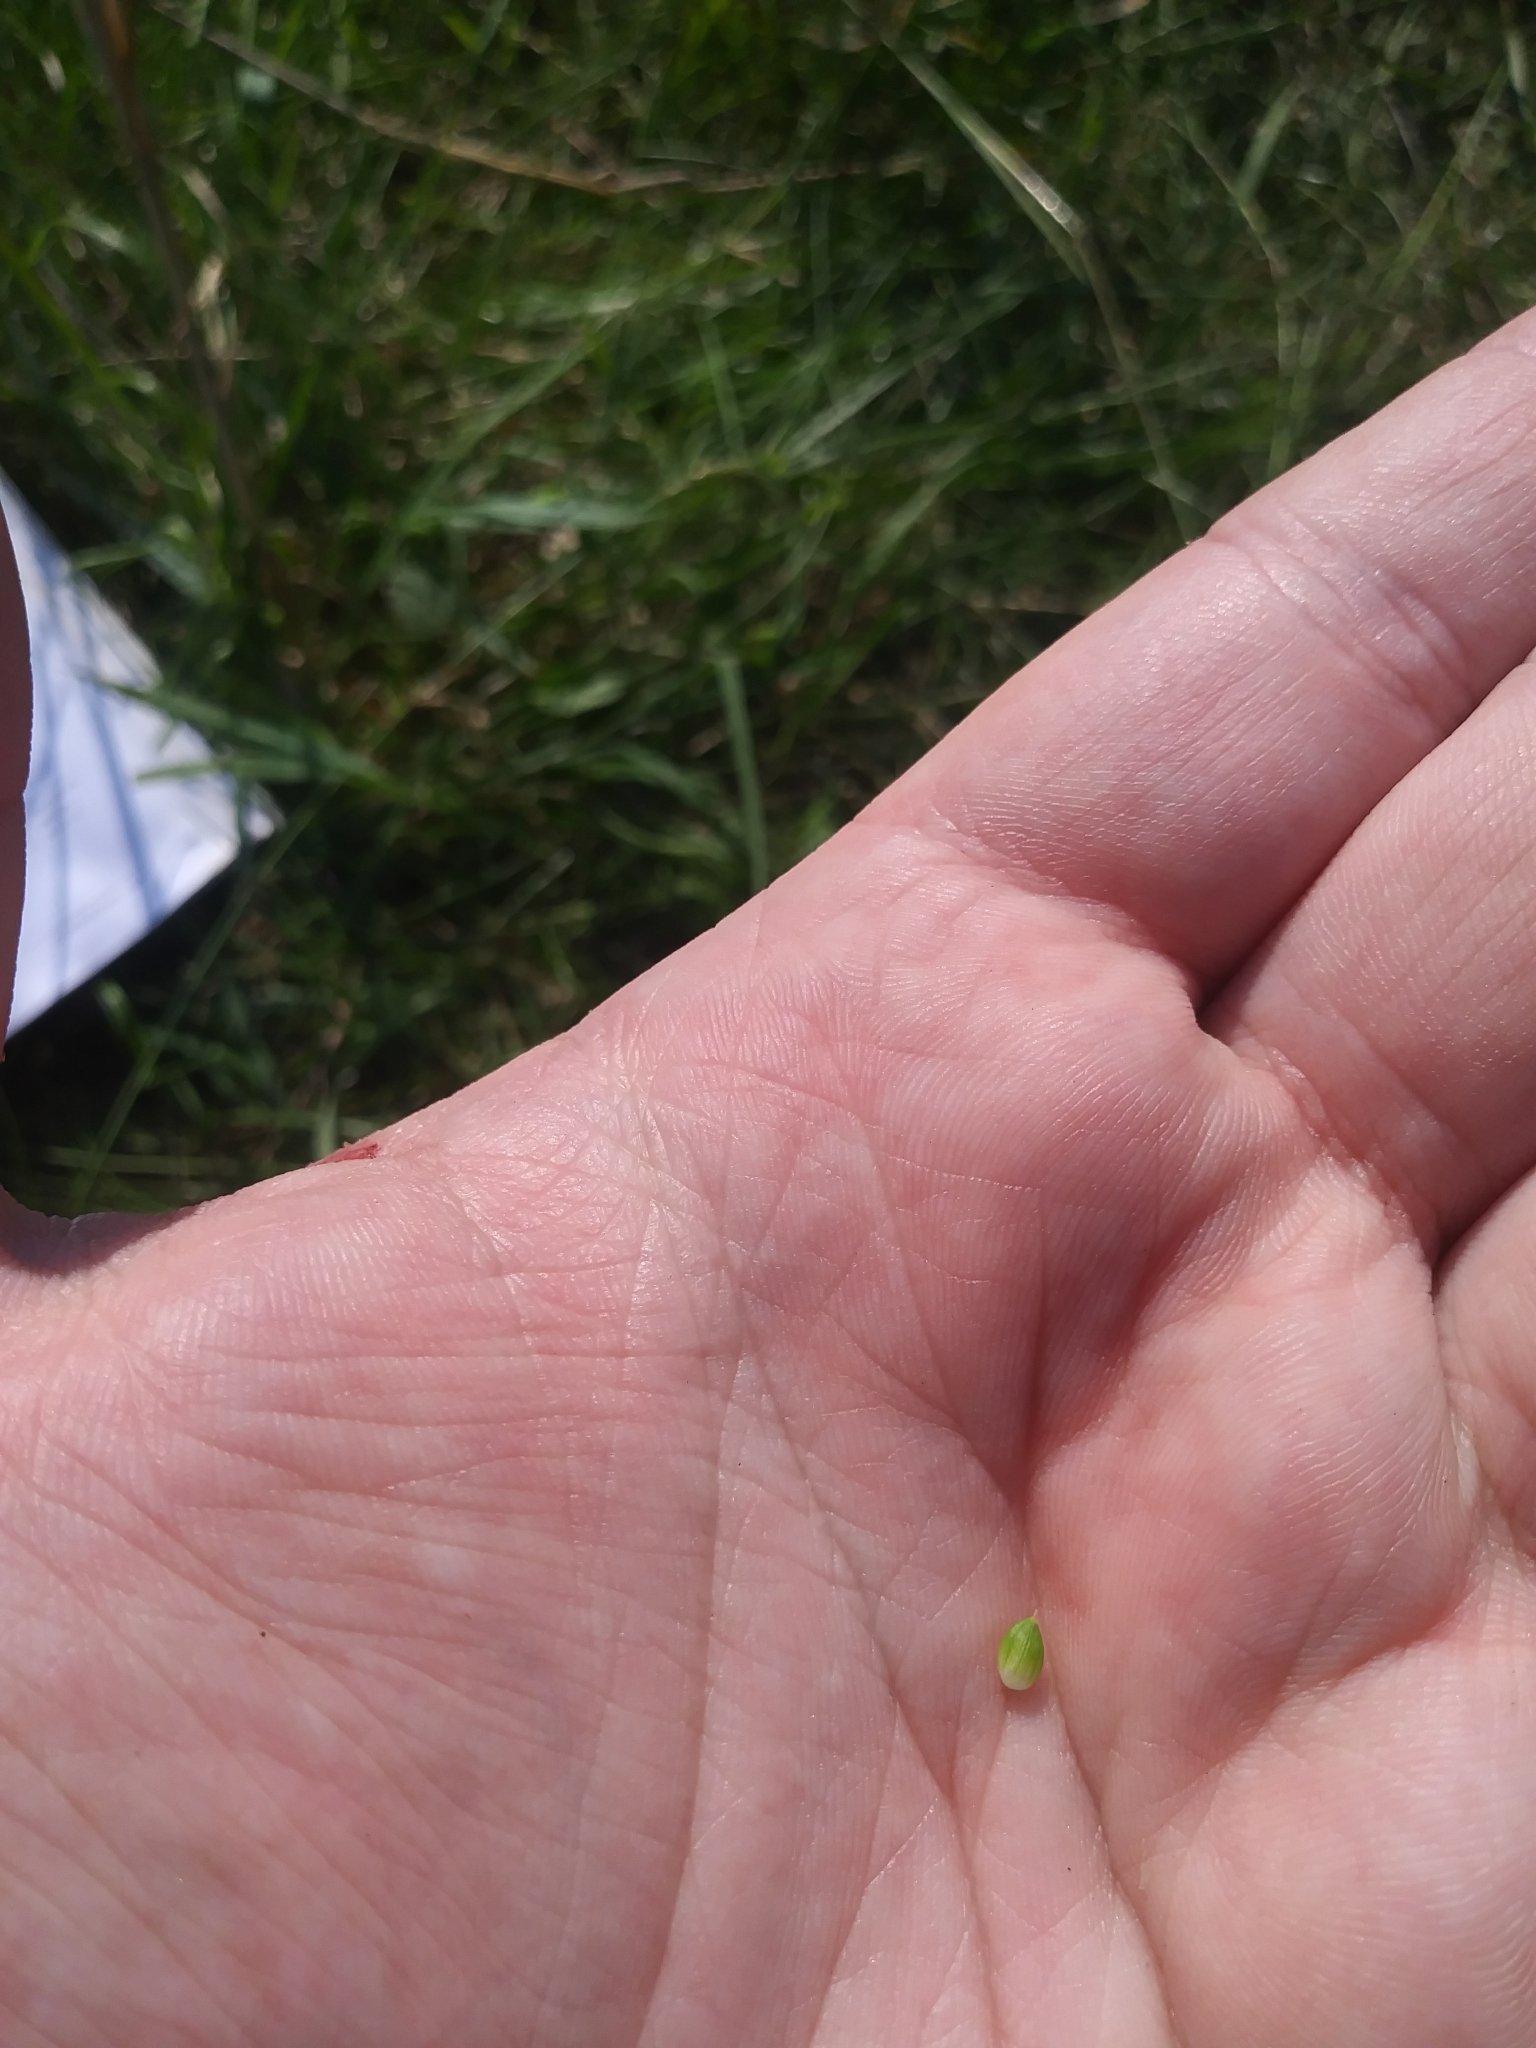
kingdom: Plantae
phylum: Tracheophyta
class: Liliopsida
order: Poales
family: Cyperaceae
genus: Carex
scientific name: Carex glaucodea
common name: Blue sedge
